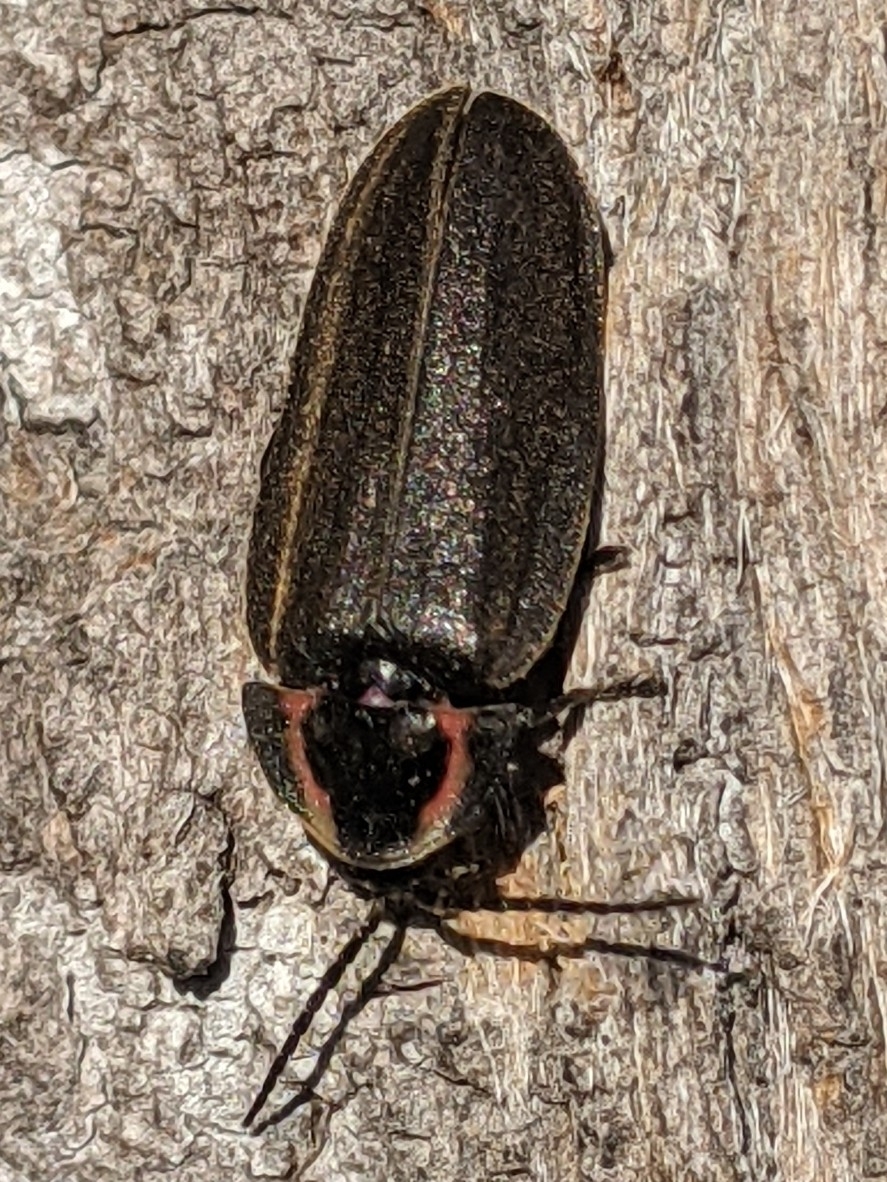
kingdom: Animalia
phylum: Arthropoda
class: Insecta
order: Coleoptera
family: Lampyridae
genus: Photinus
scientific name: Photinus corrusca
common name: Winter firefly
